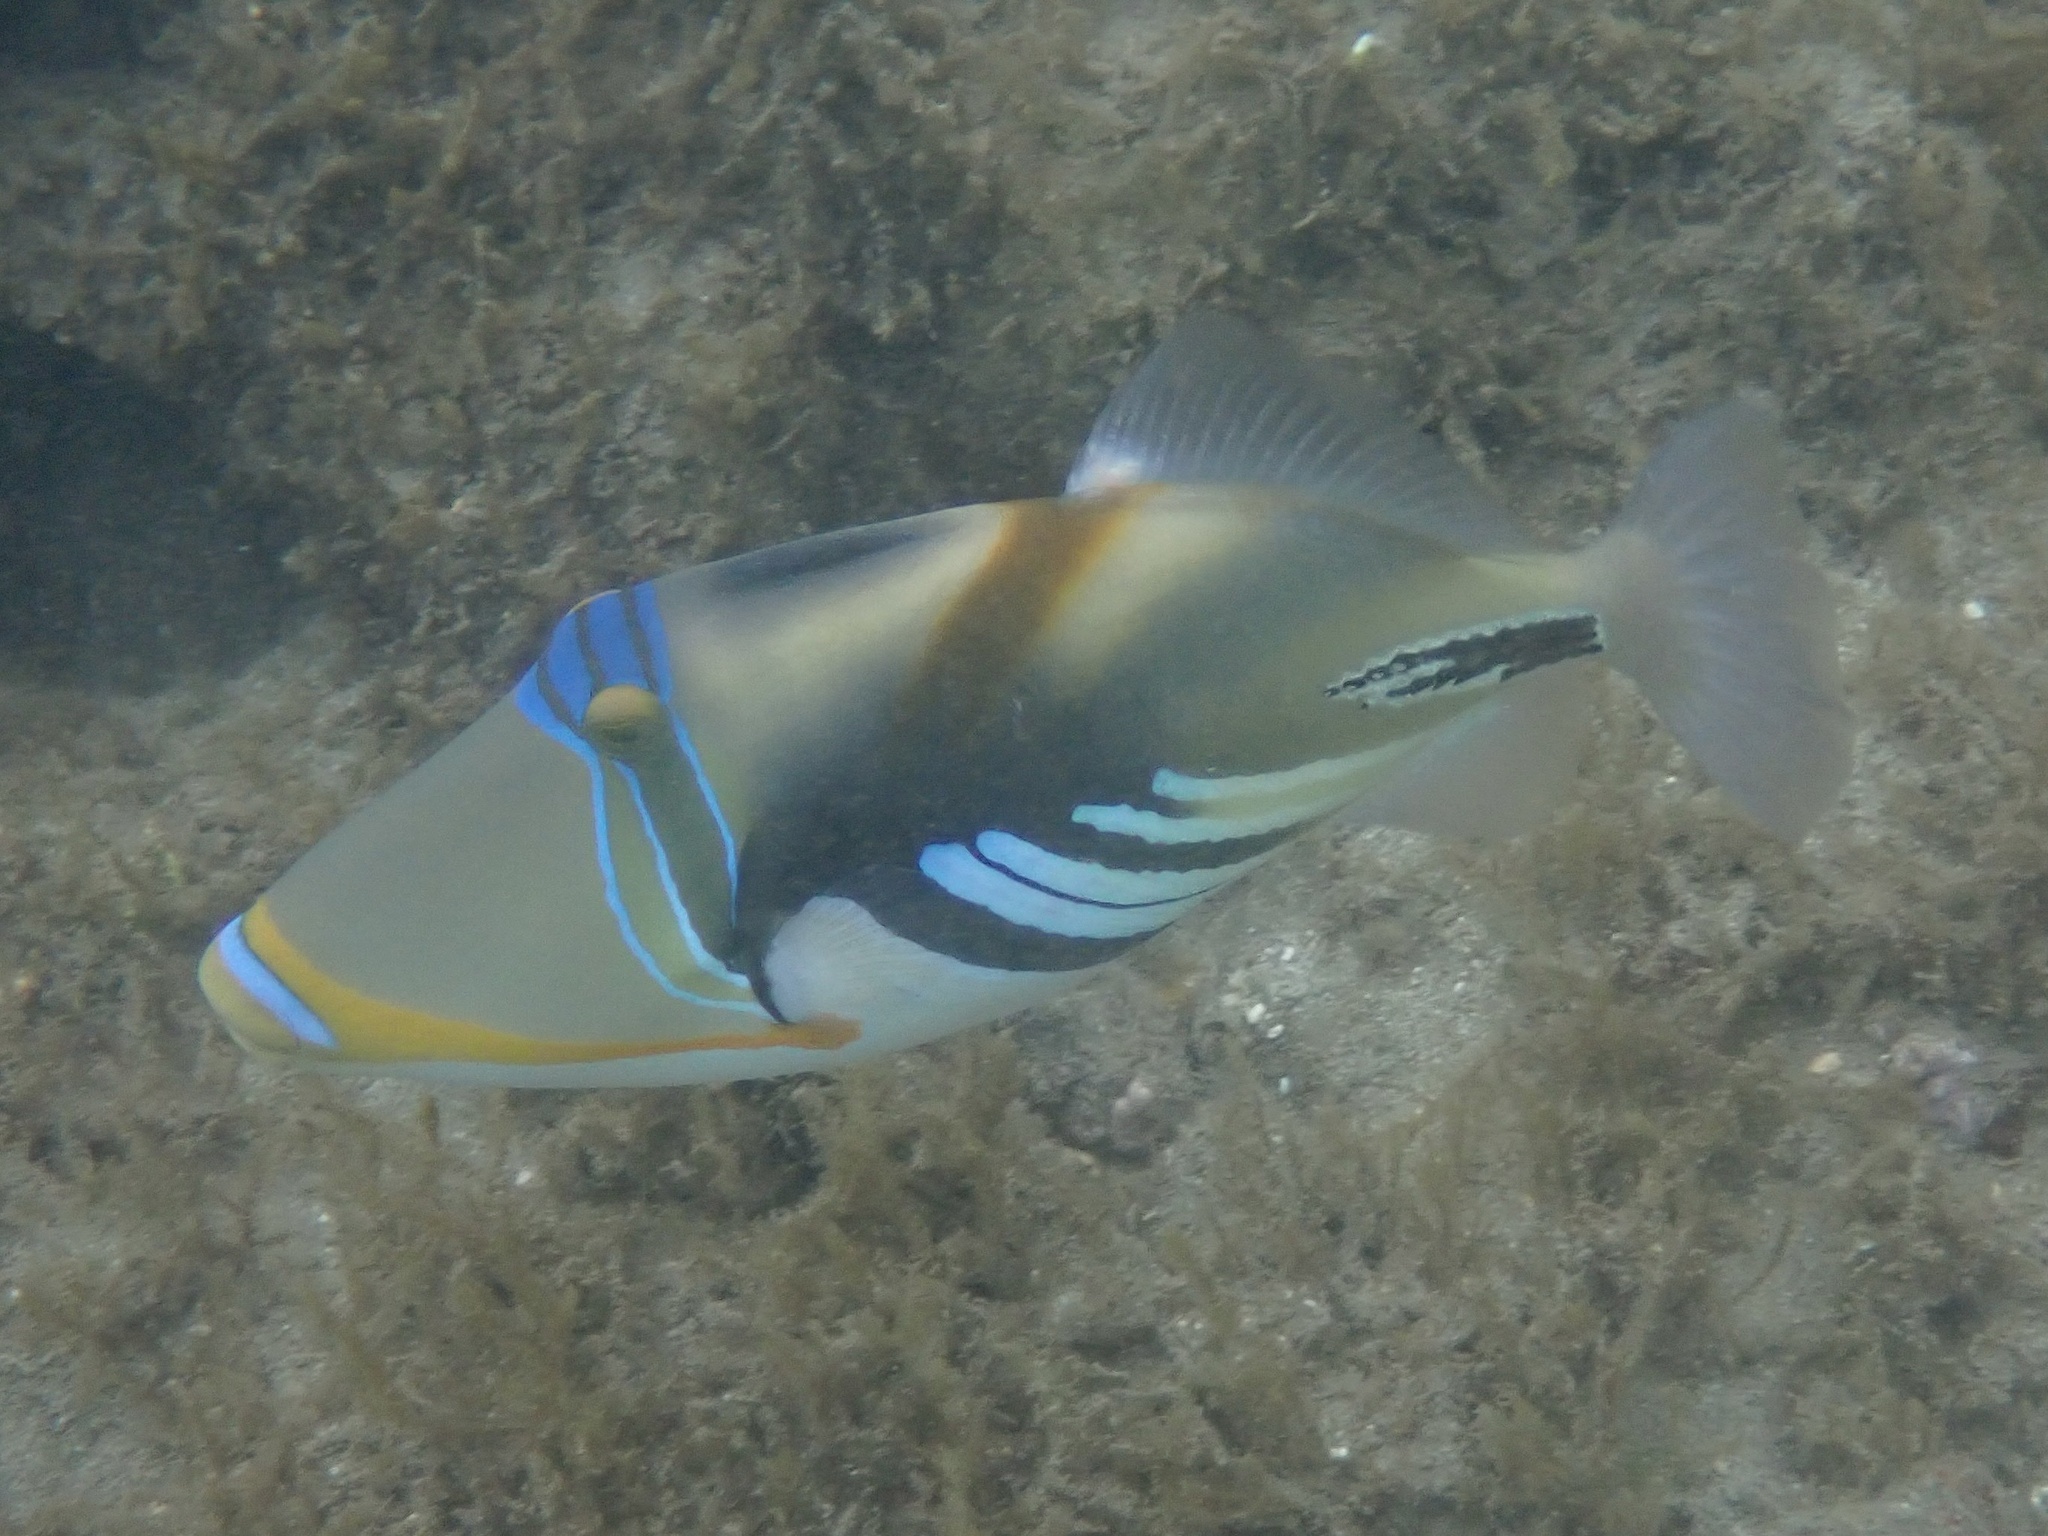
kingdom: Animalia
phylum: Chordata
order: Tetraodontiformes
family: Balistidae
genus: Rhinecanthus
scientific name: Rhinecanthus aculeatus
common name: White-banded triggerfish
